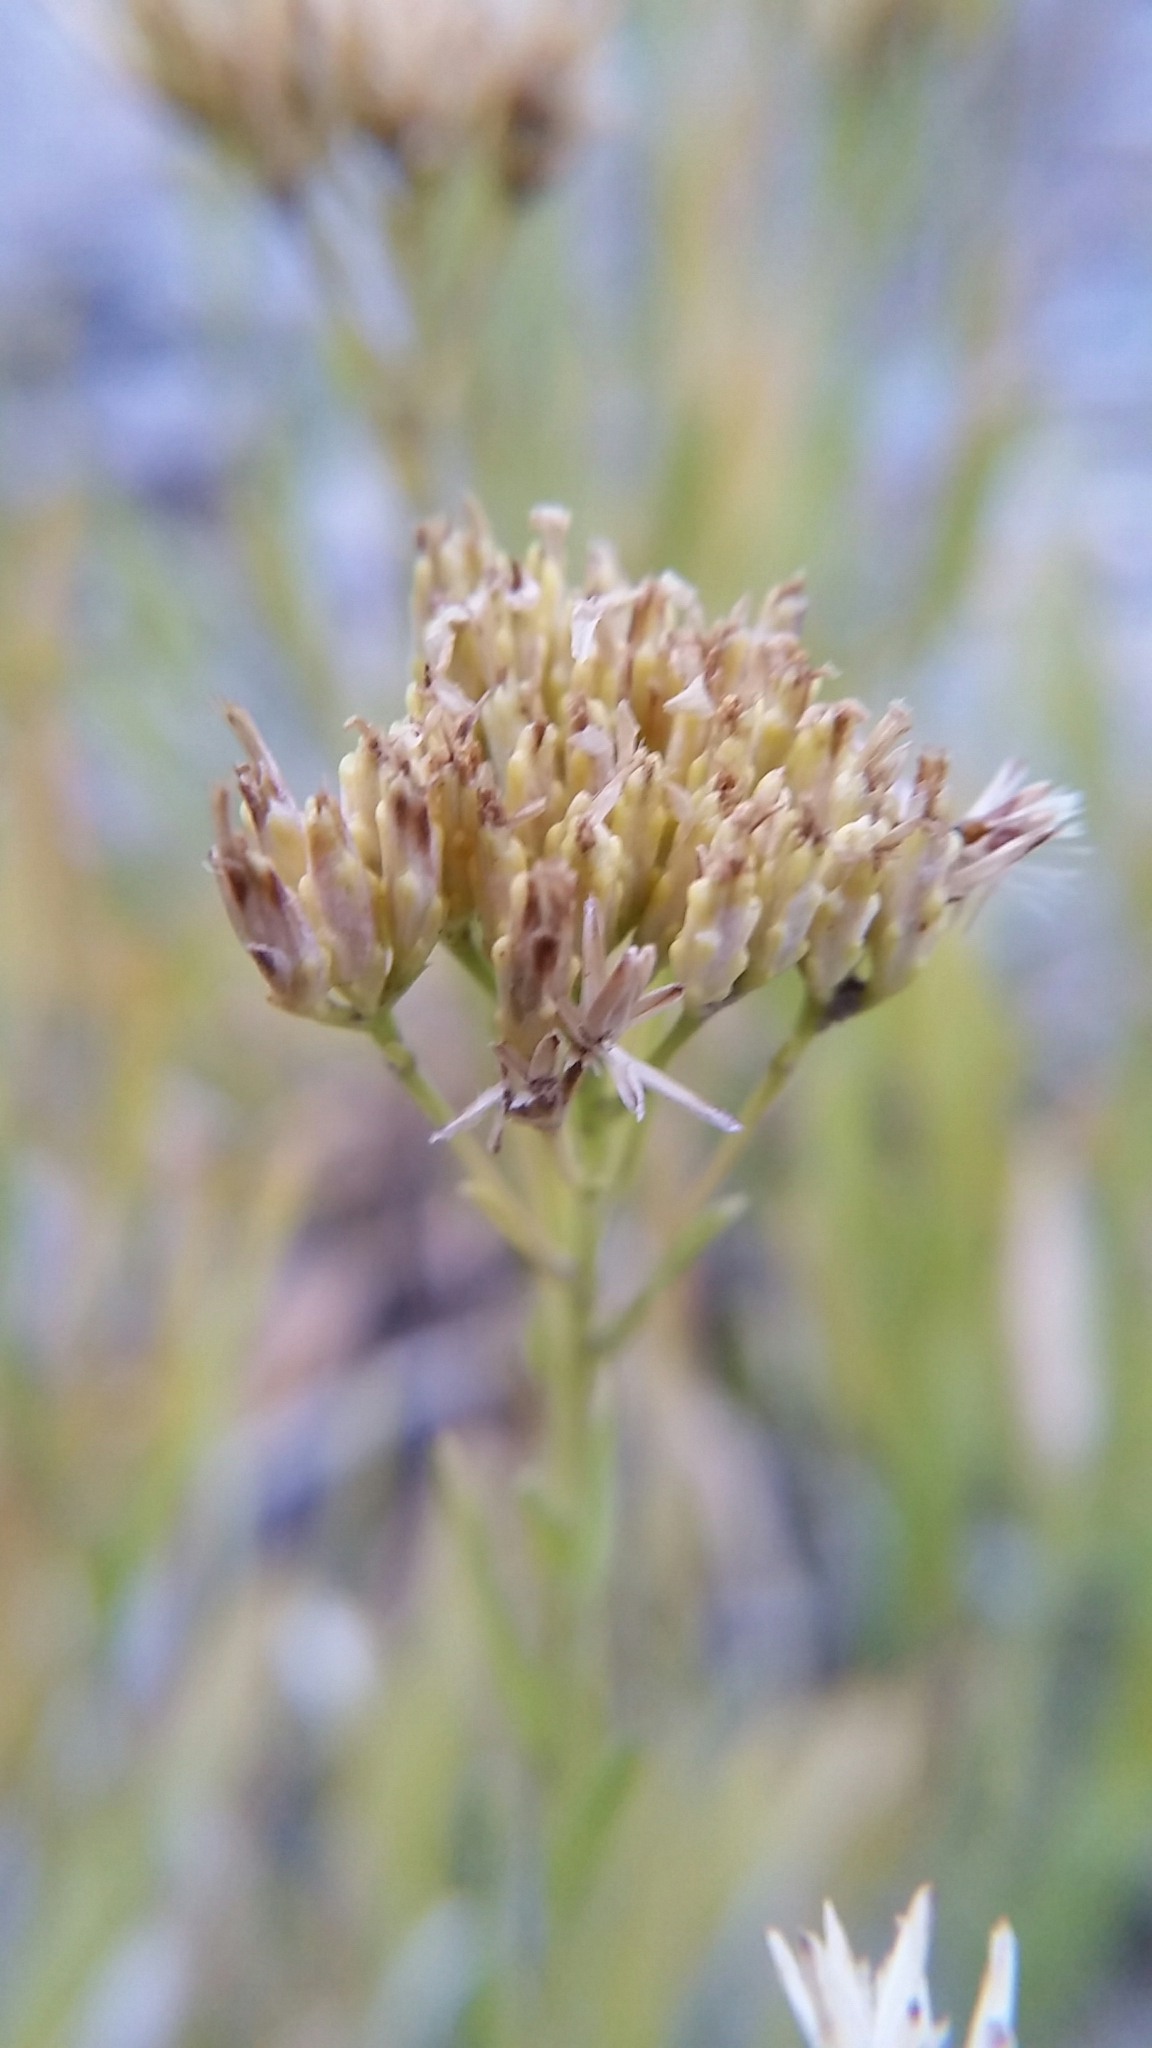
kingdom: Plantae
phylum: Tracheophyta
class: Magnoliopsida
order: Asterales
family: Asteraceae
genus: Petradoria
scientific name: Petradoria pumila
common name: Rock-goldenrod
